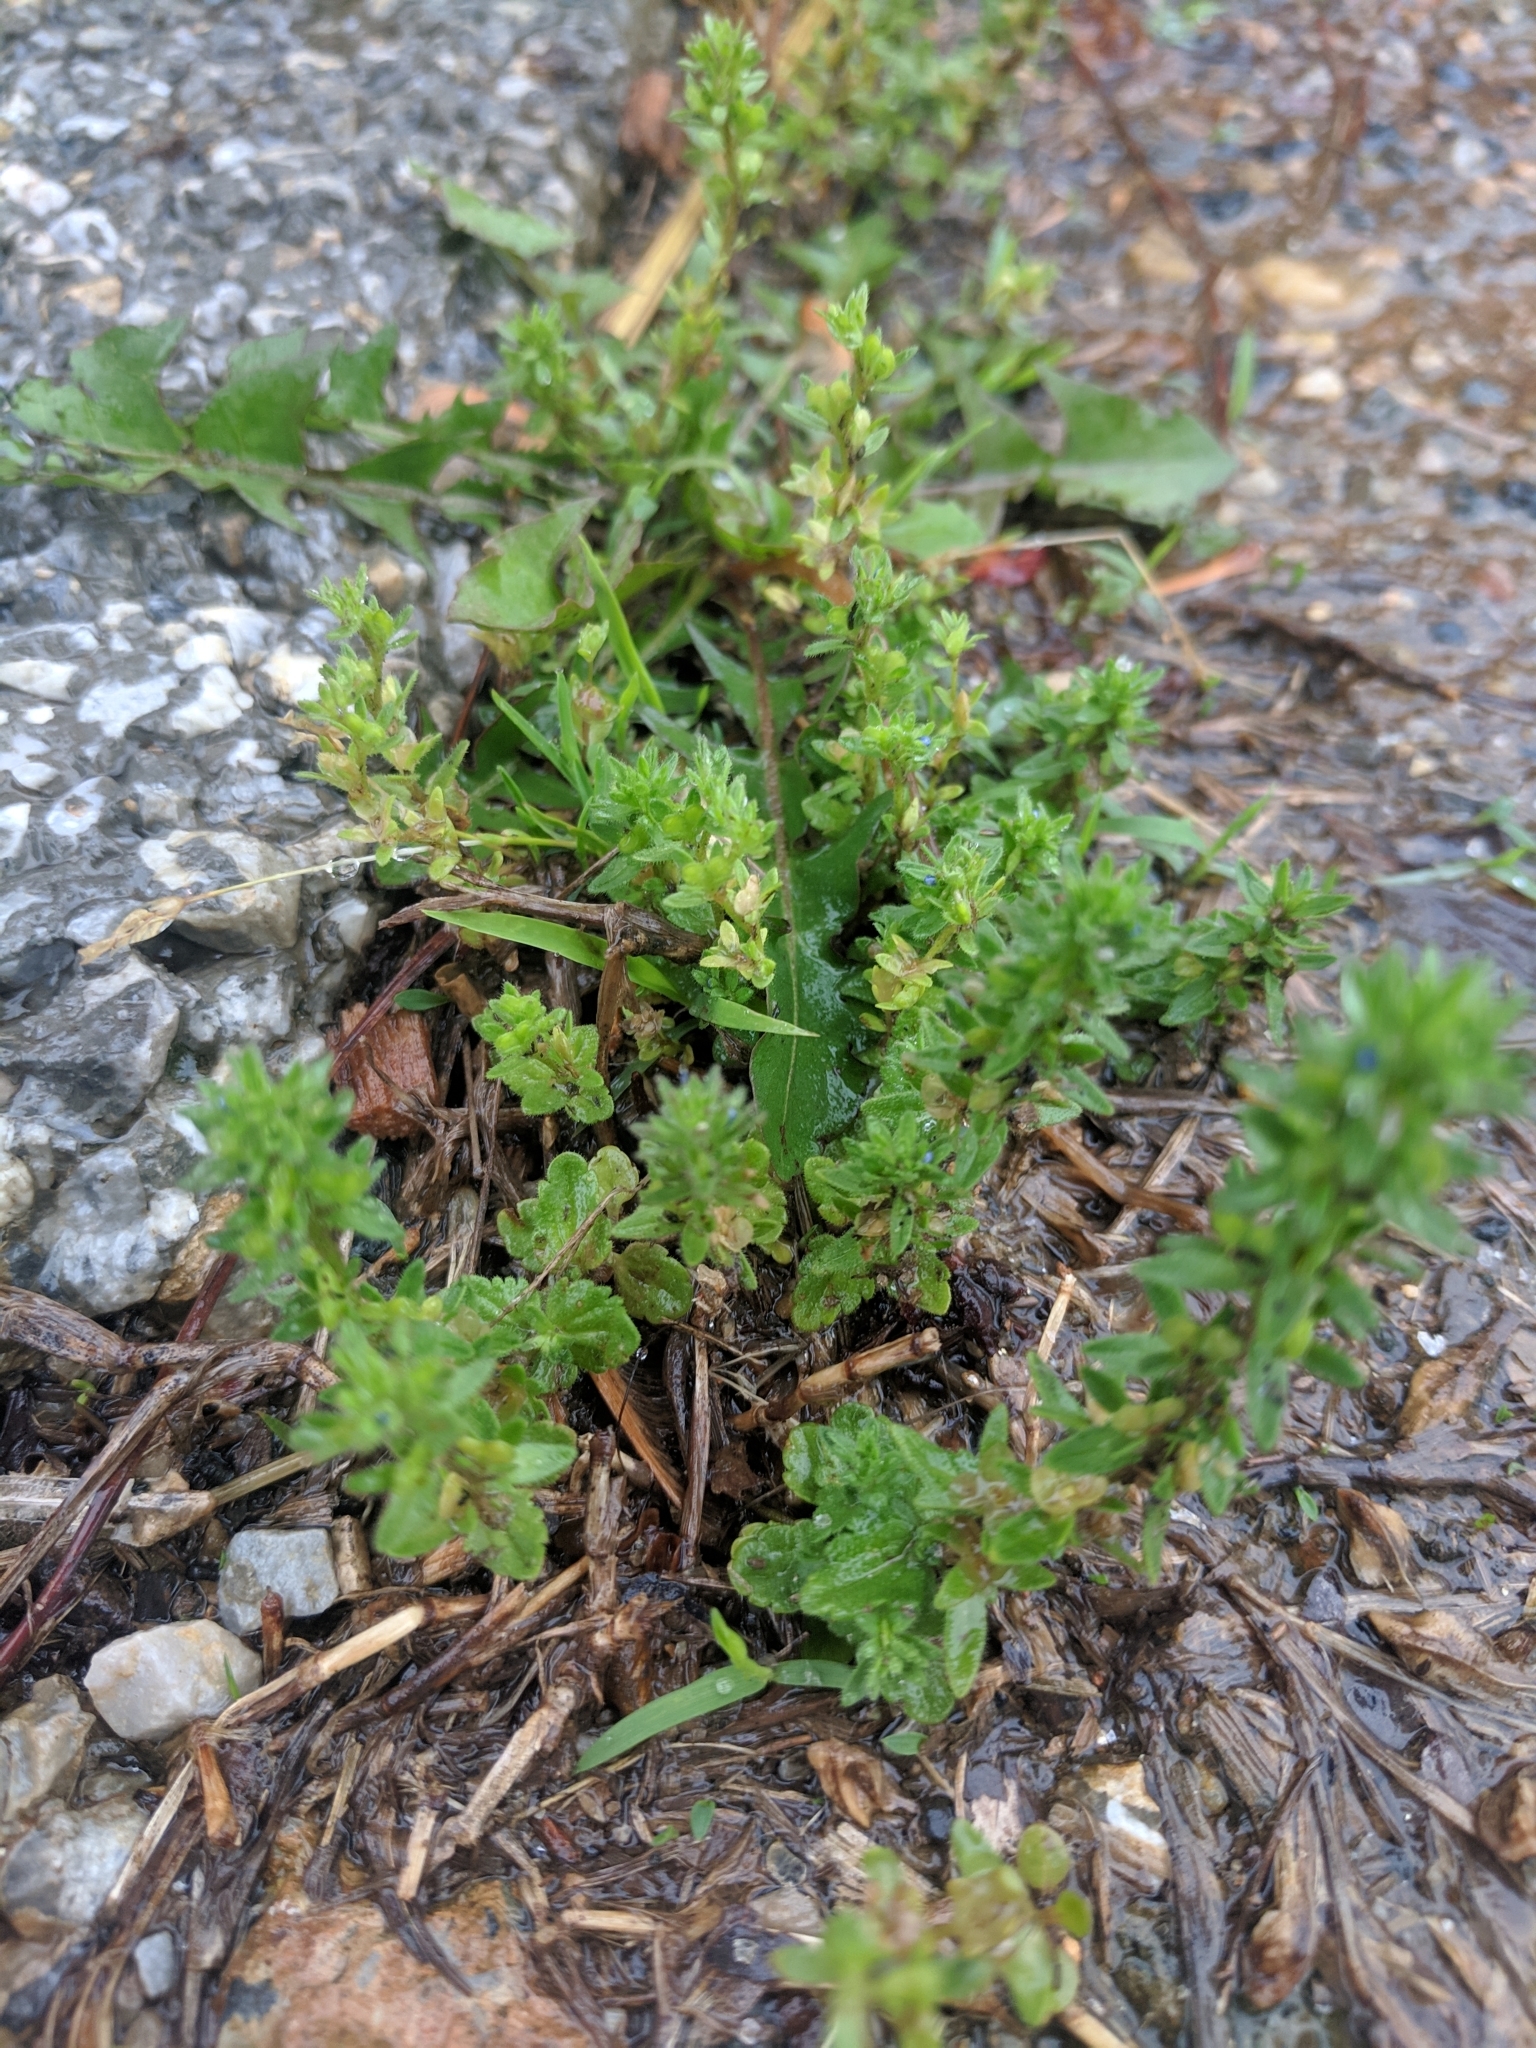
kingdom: Plantae
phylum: Tracheophyta
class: Magnoliopsida
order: Lamiales
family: Plantaginaceae
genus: Veronica
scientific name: Veronica arvensis
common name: Corn speedwell
